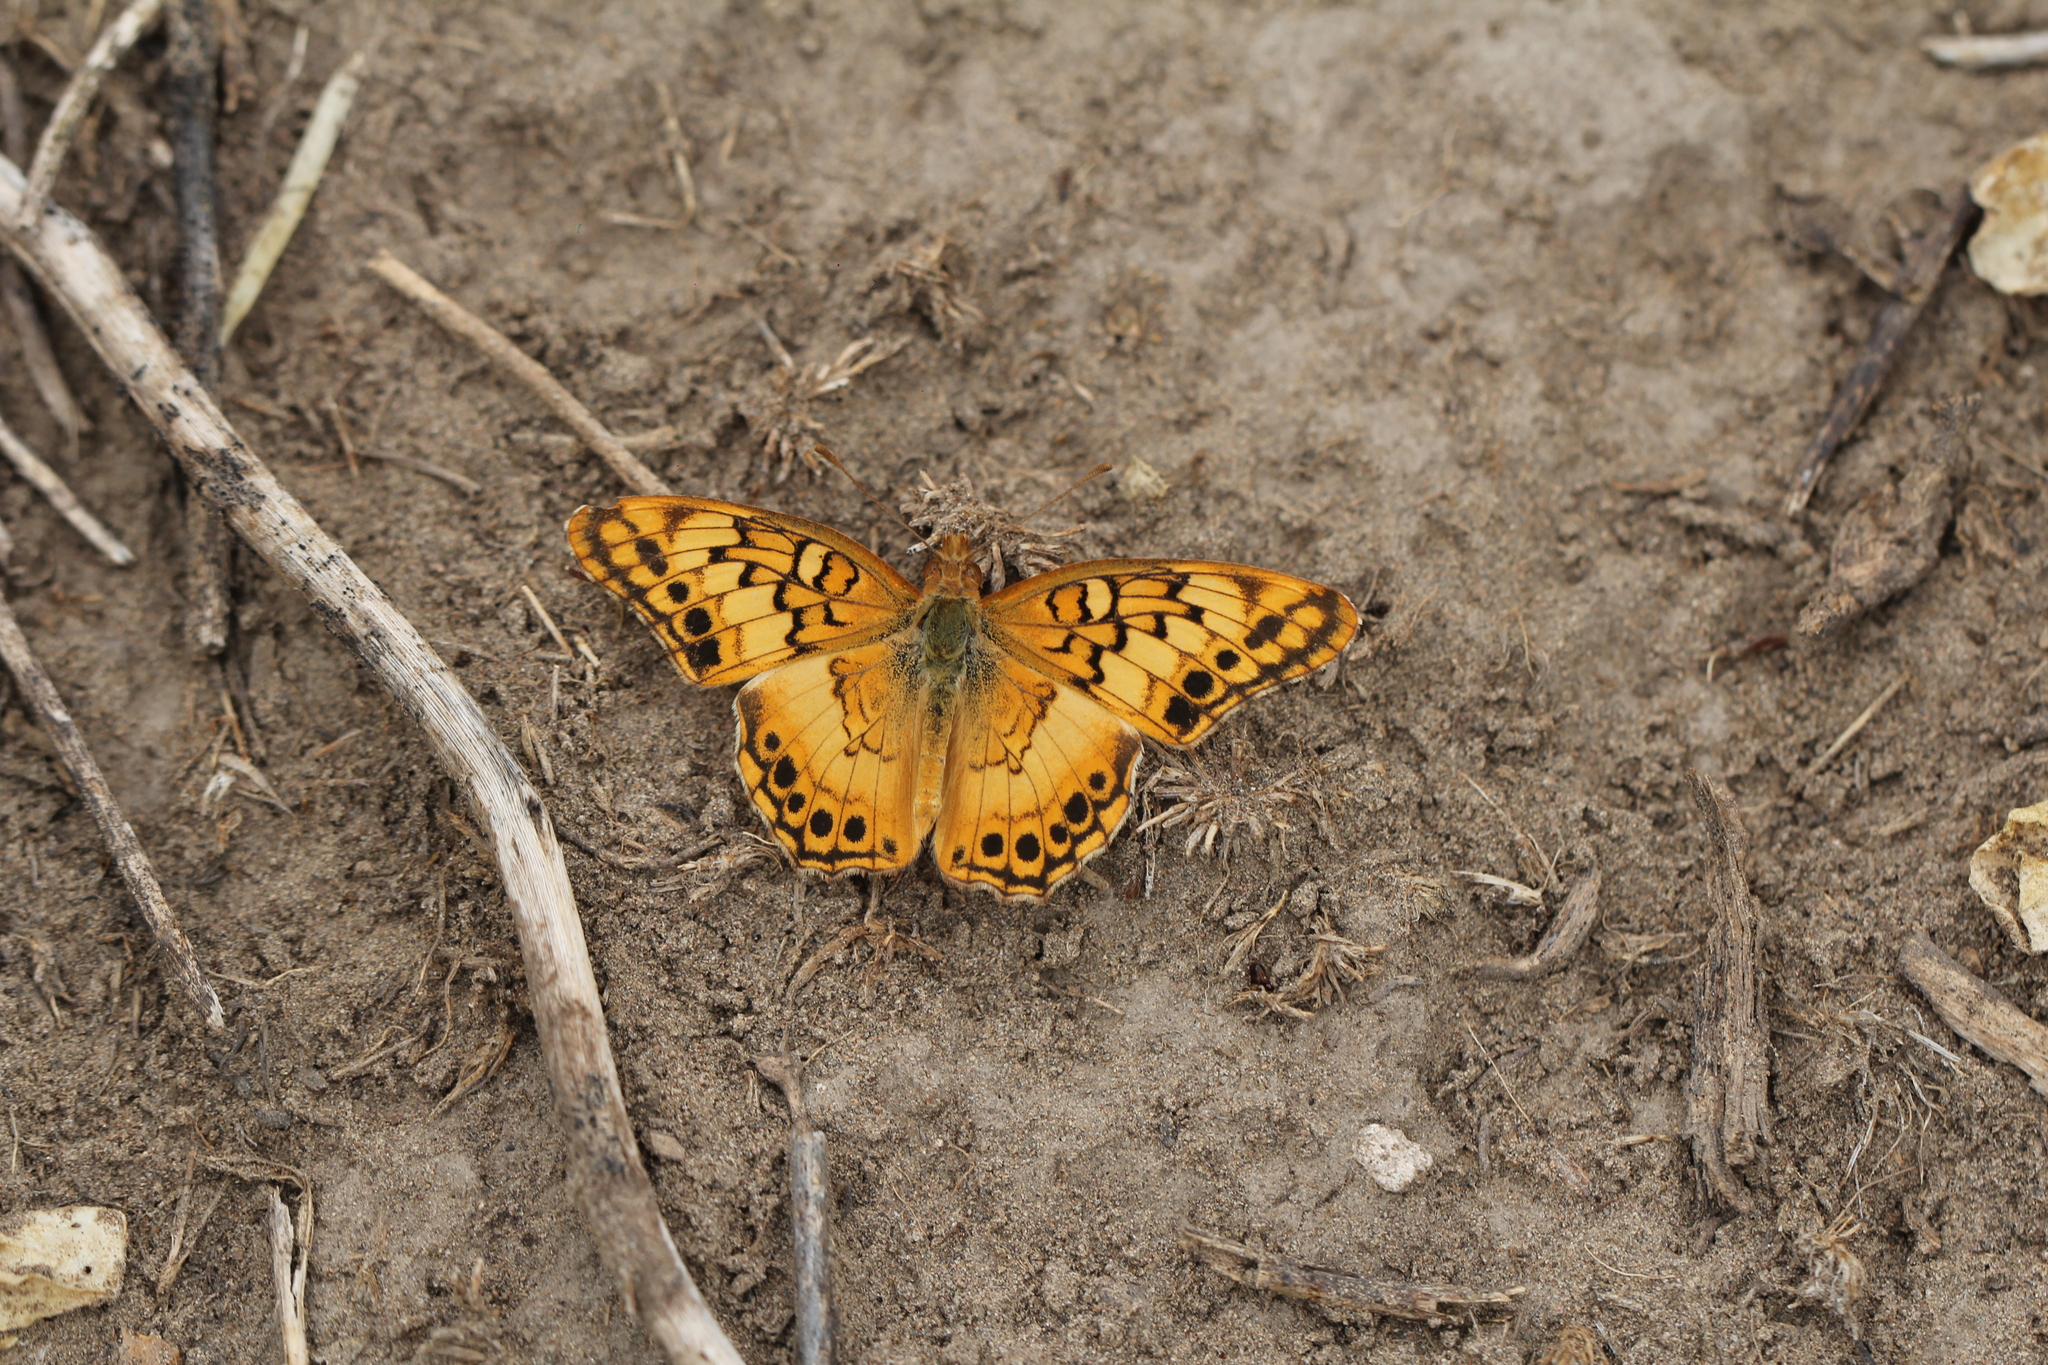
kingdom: Animalia
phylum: Arthropoda
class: Insecta
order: Lepidoptera
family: Nymphalidae
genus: Euptoieta
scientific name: Euptoieta hortensia
